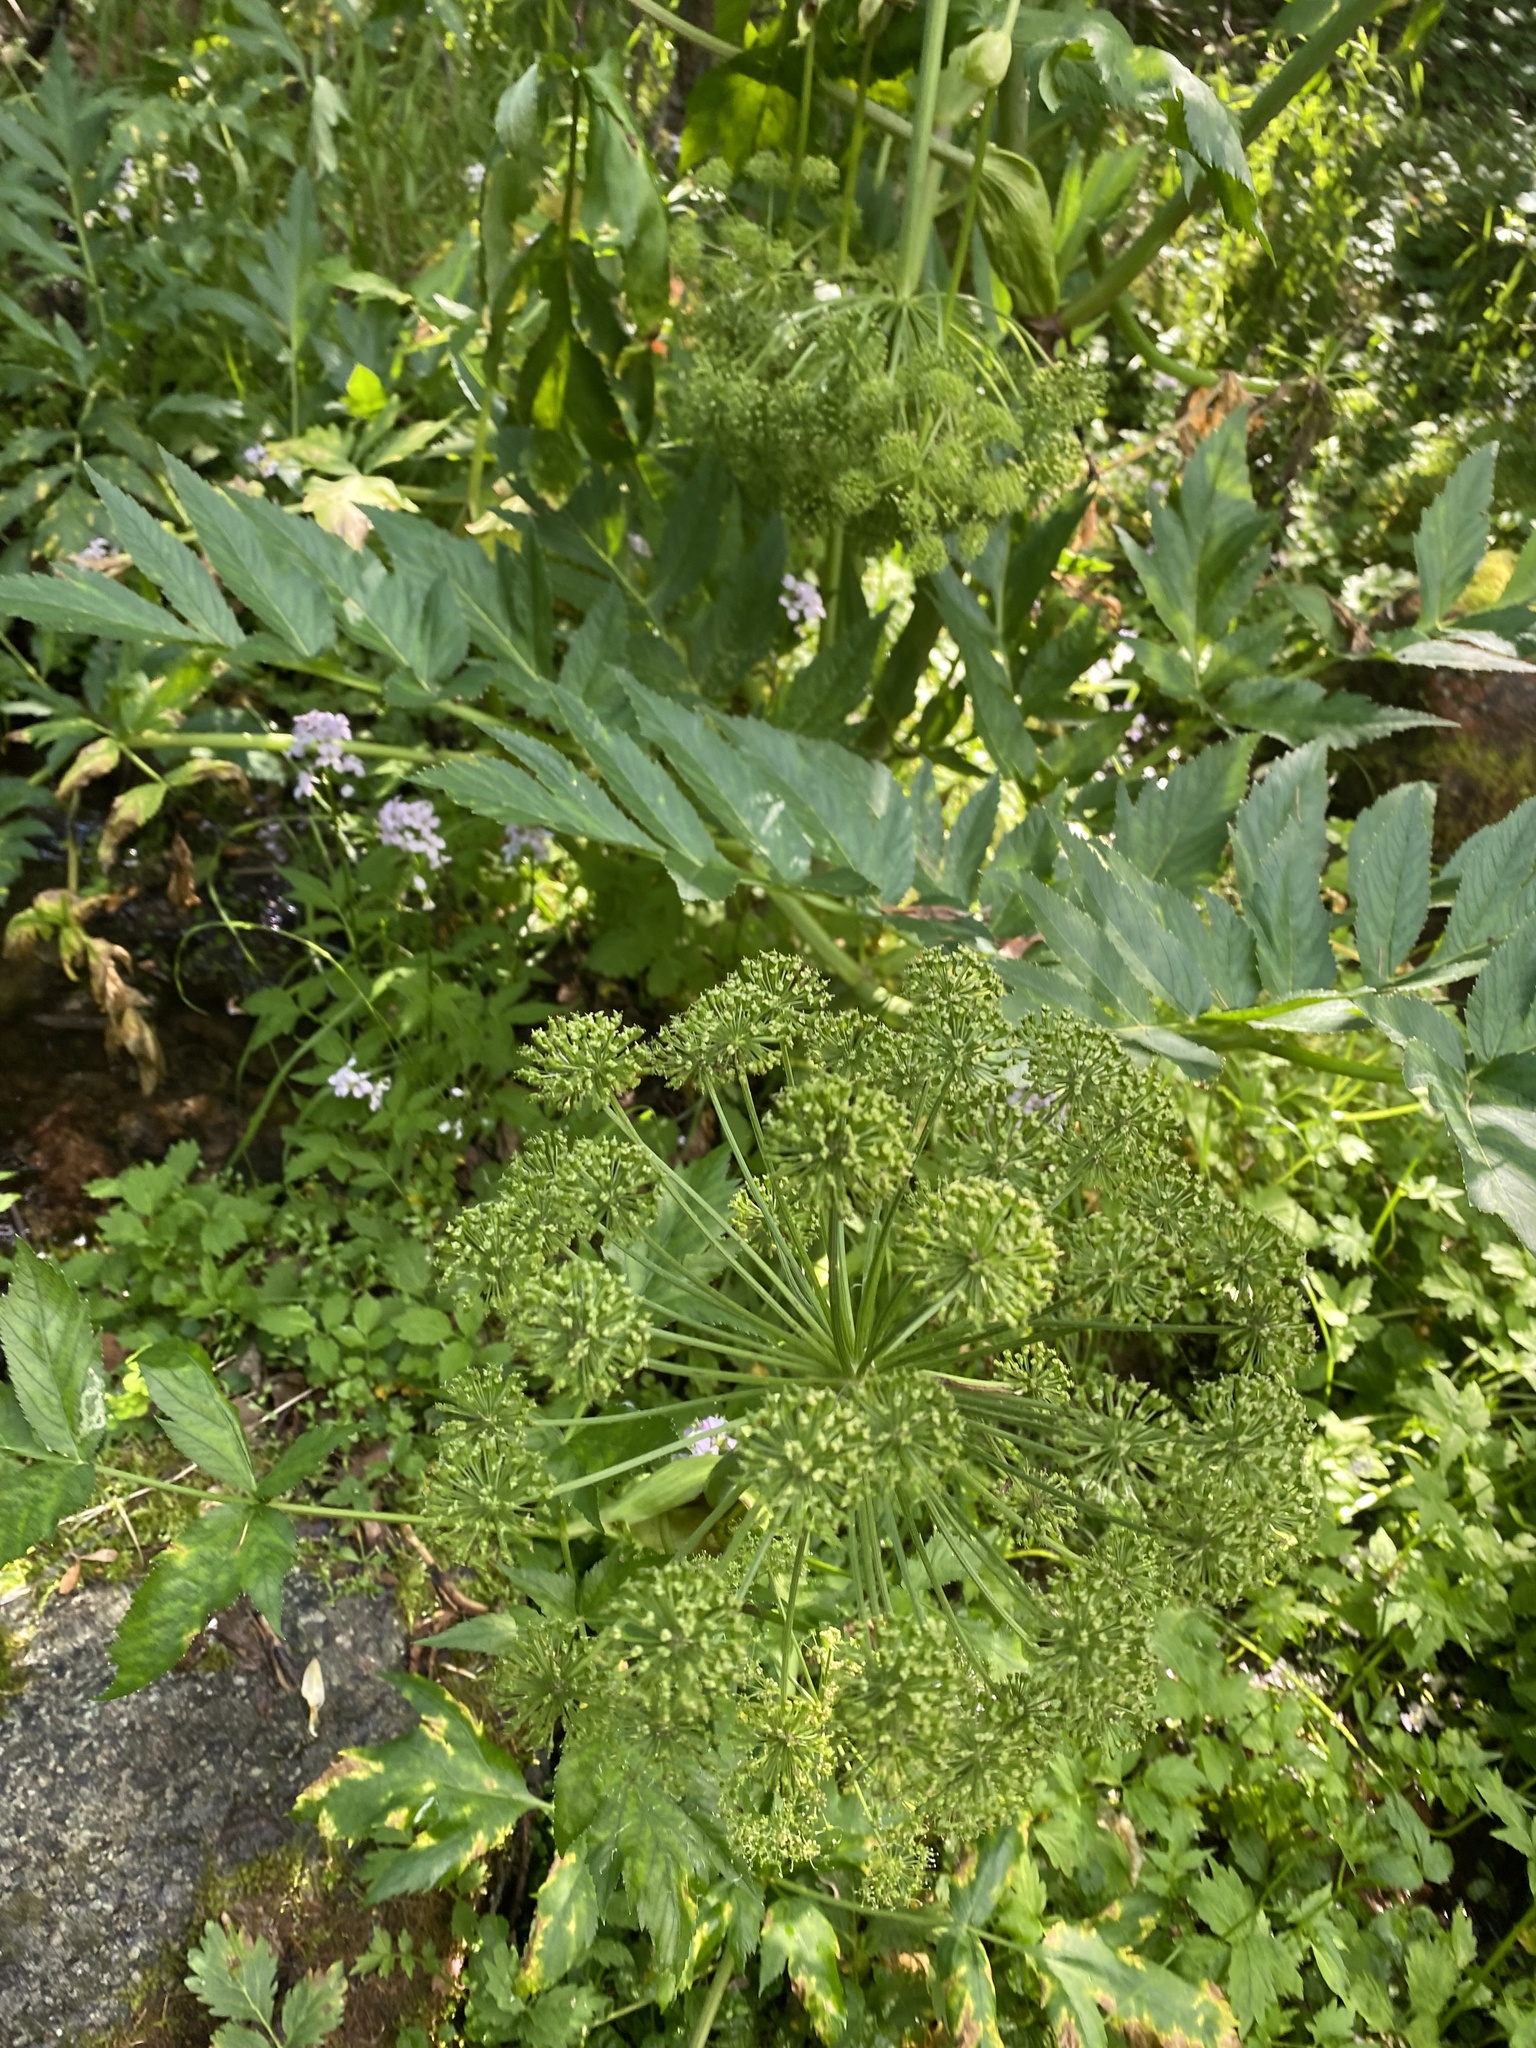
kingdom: Plantae
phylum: Tracheophyta
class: Magnoliopsida
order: Apiales
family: Apiaceae
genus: Angelica
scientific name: Angelica decurrens
